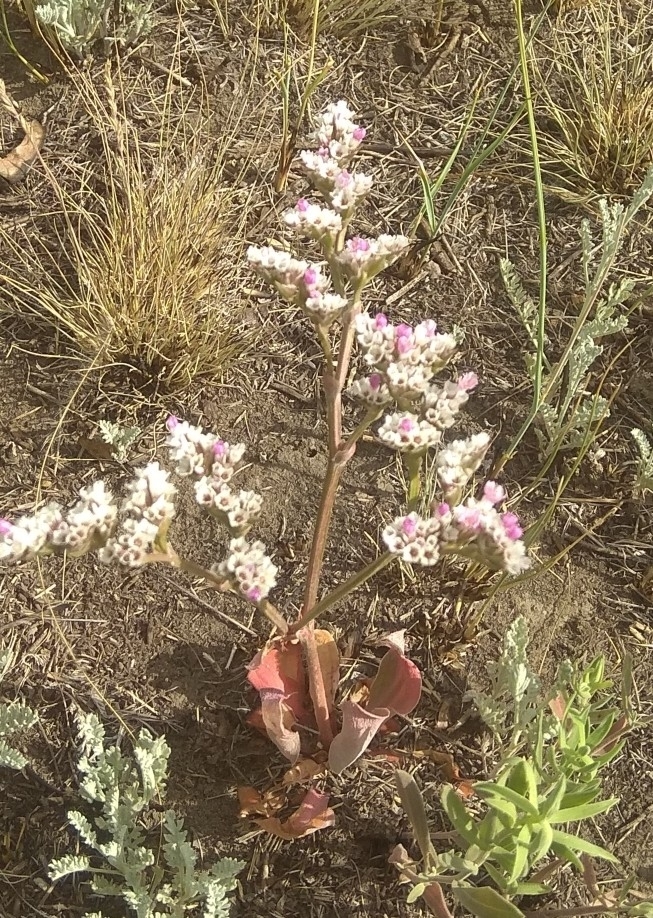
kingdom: Plantae
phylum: Tracheophyta
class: Magnoliopsida
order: Caryophyllales
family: Plumbaginaceae
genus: Goniolimon
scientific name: Goniolimon speciosum
